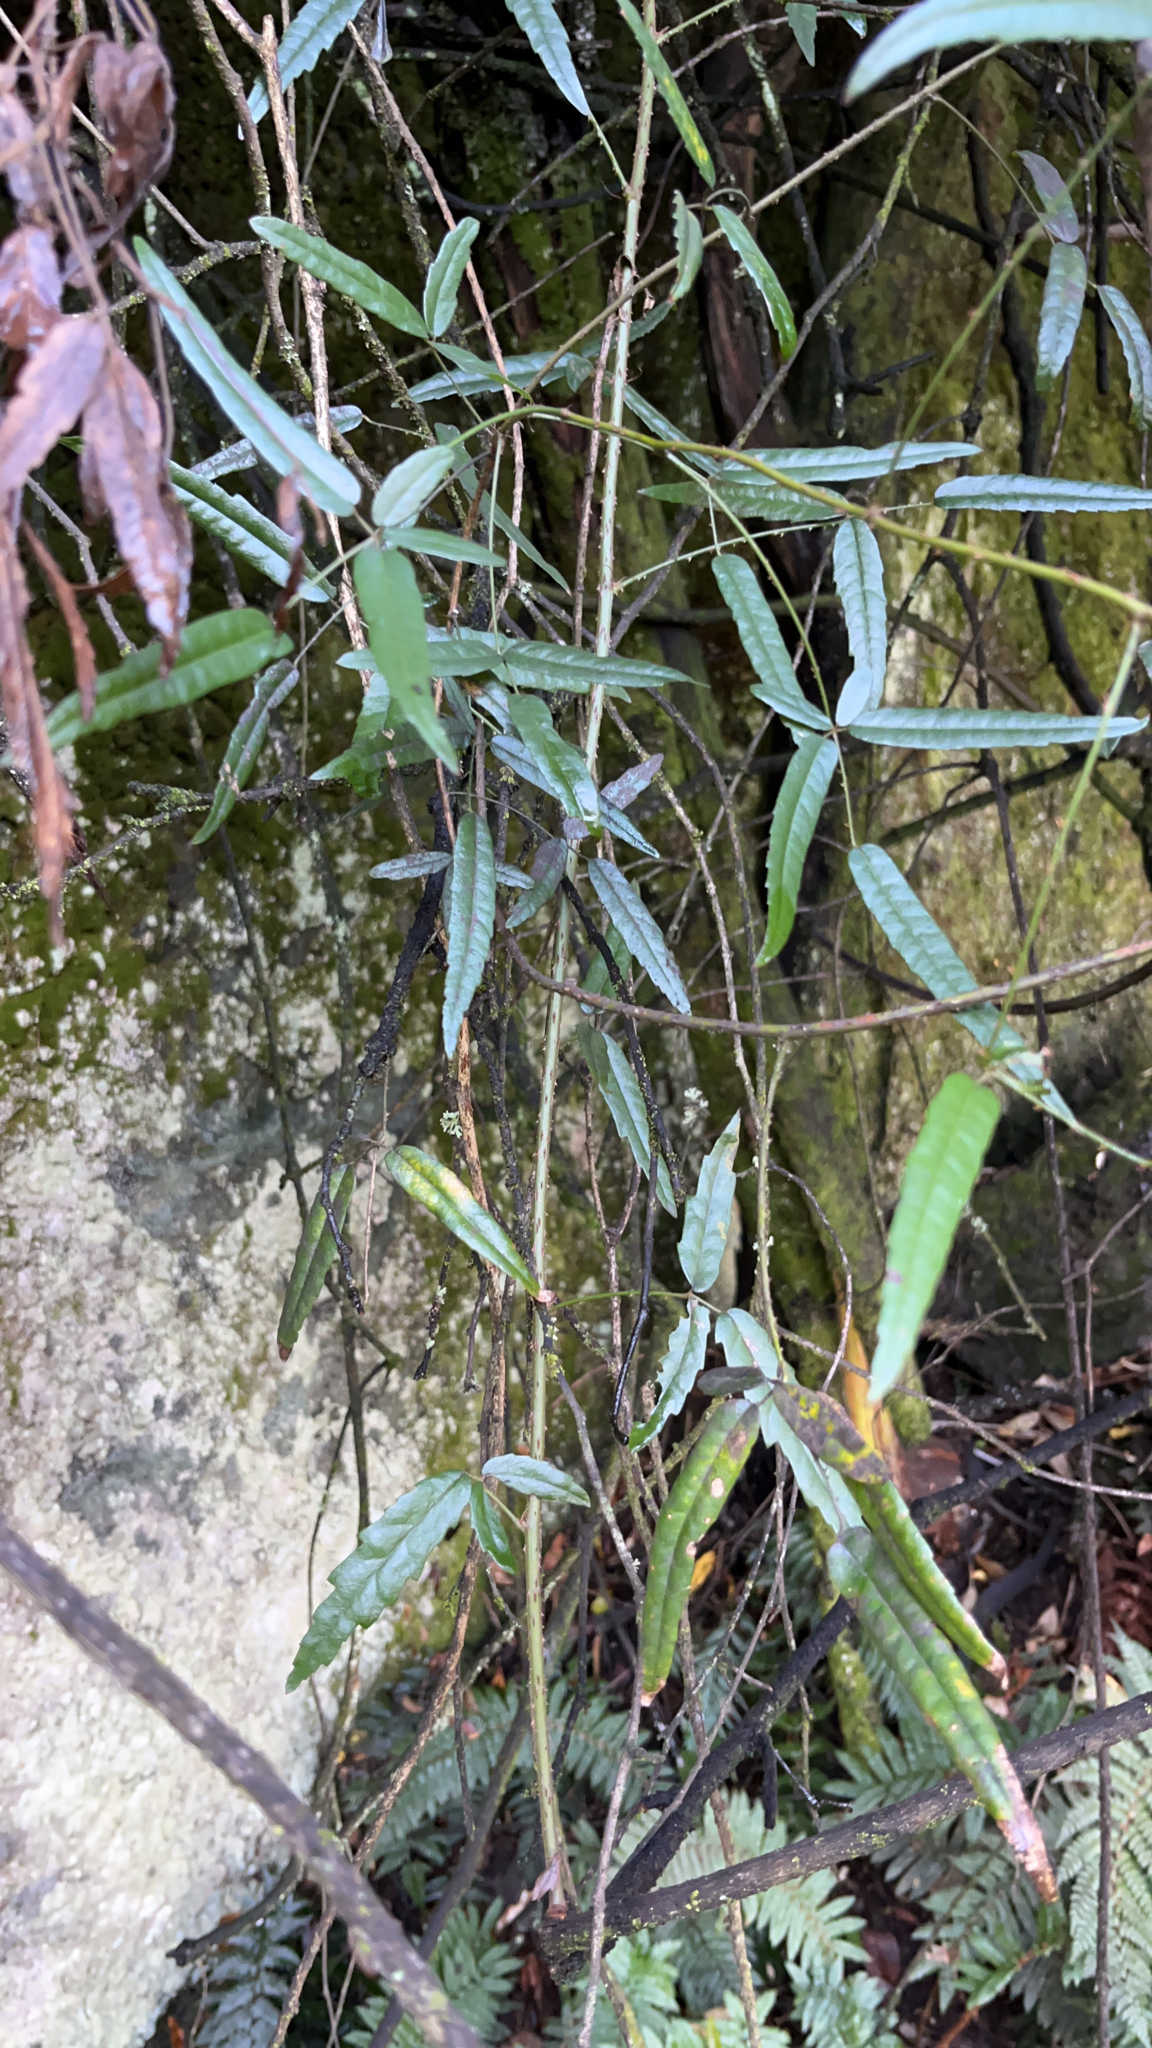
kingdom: Plantae
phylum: Tracheophyta
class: Magnoliopsida
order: Rosales
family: Rosaceae
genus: Rubus
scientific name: Rubus schmidelioides
